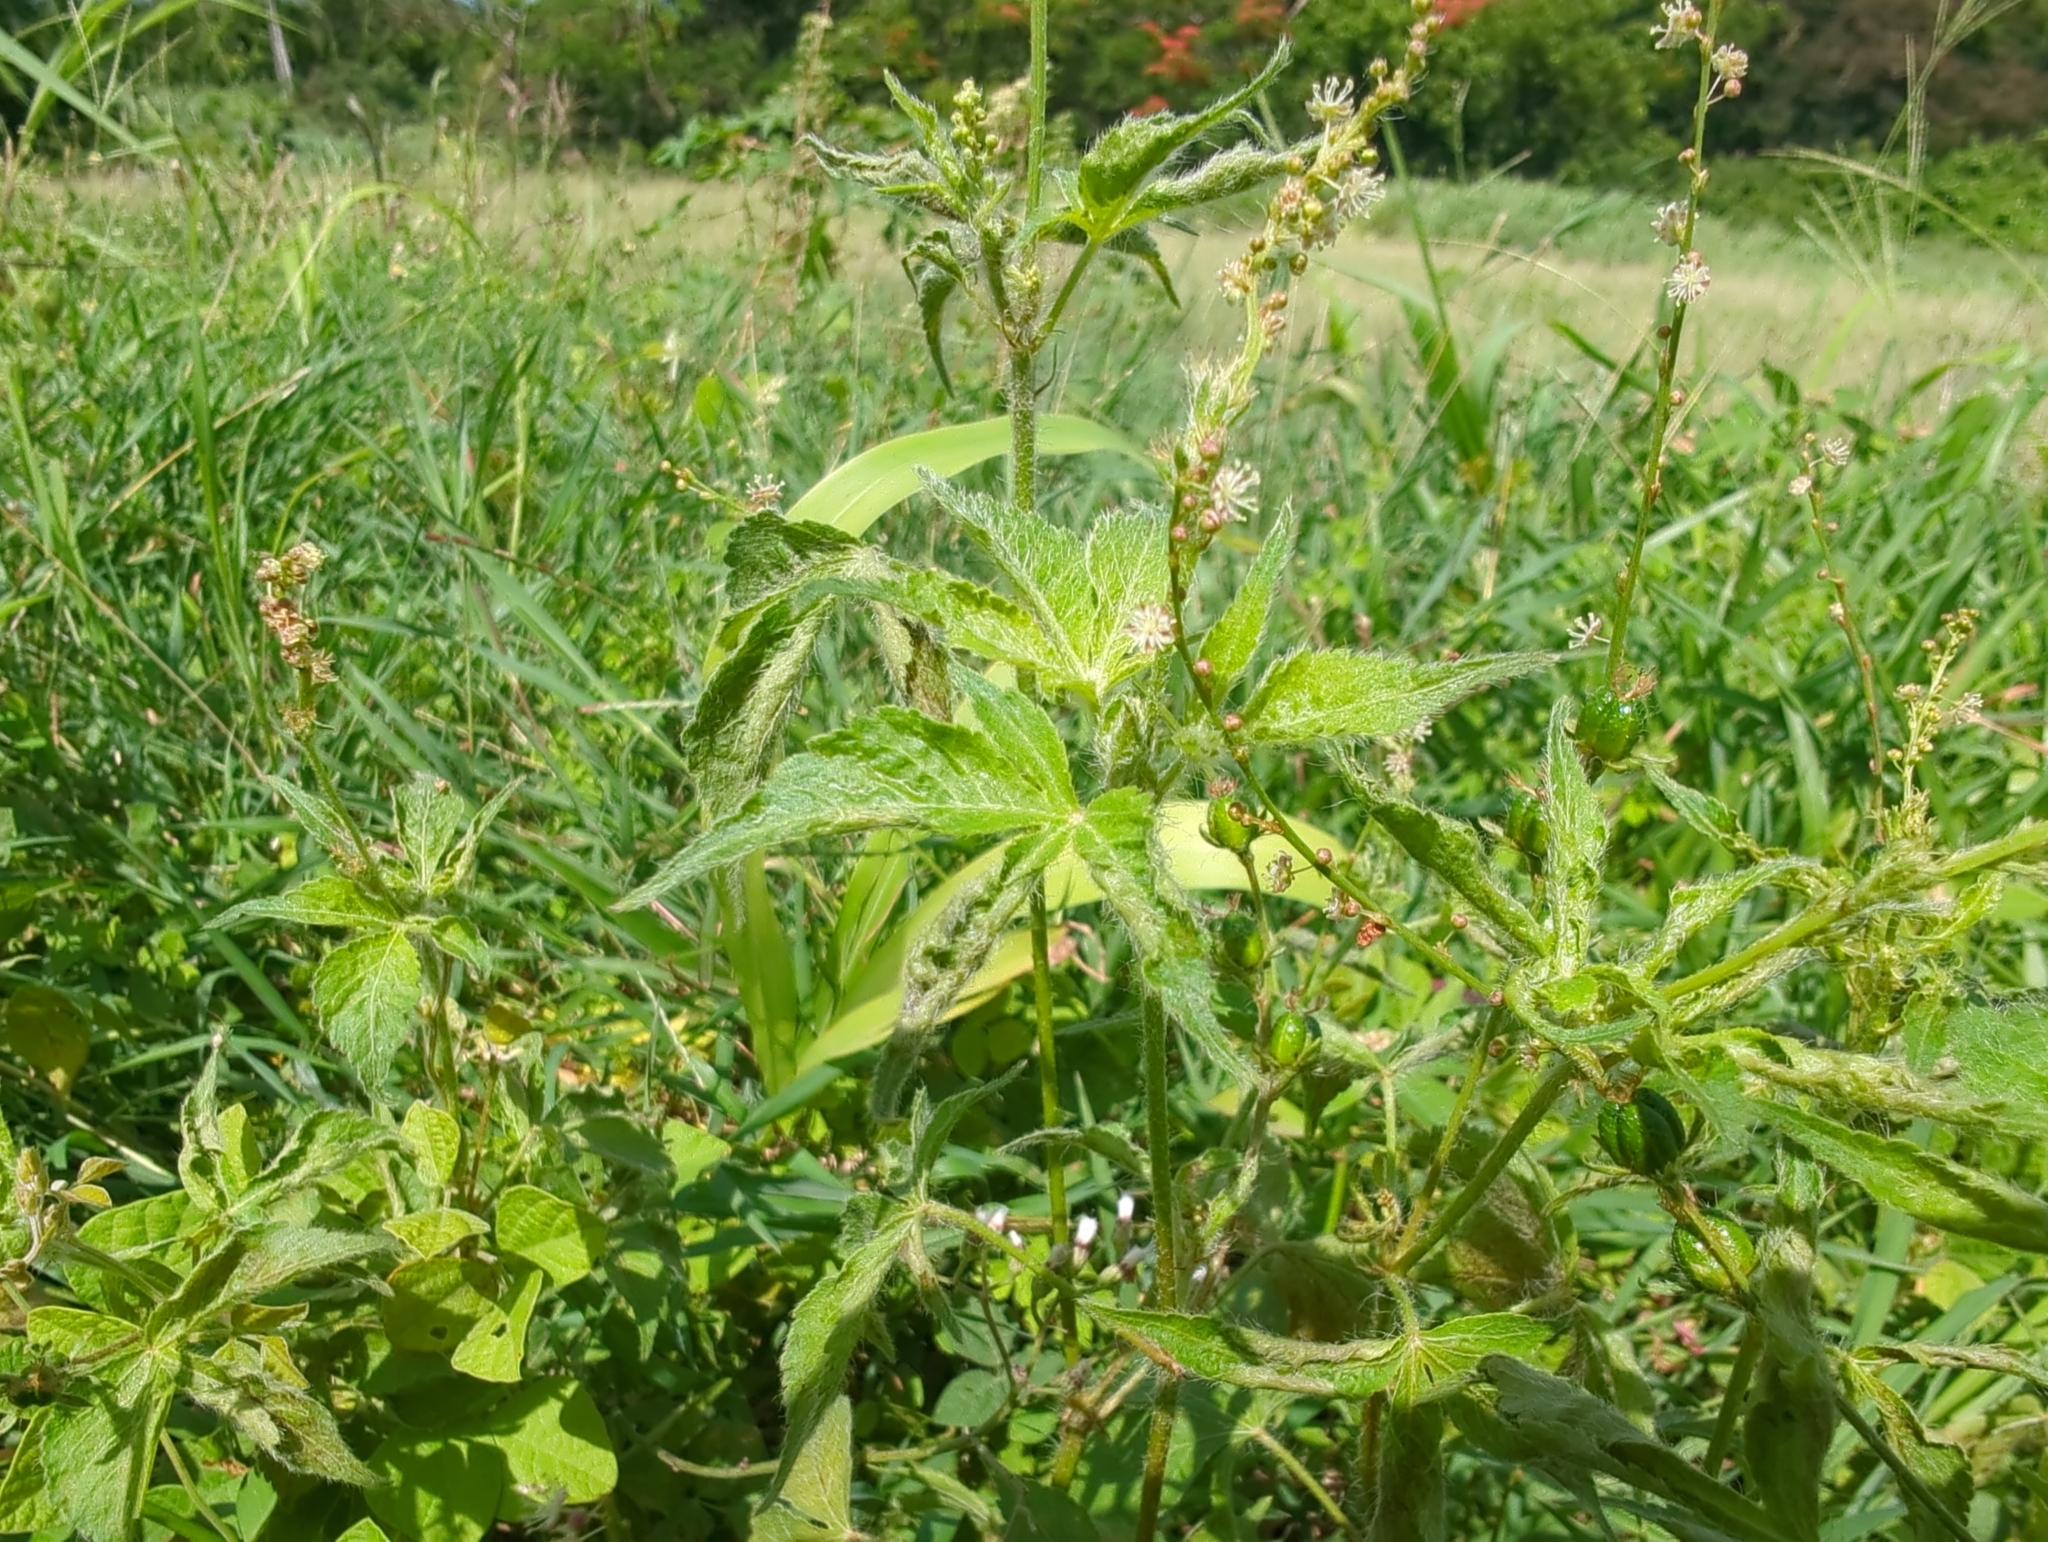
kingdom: Plantae
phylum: Tracheophyta
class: Magnoliopsida
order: Malpighiales
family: Euphorbiaceae
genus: Astraea
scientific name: Astraea lobata
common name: Lobed croton
